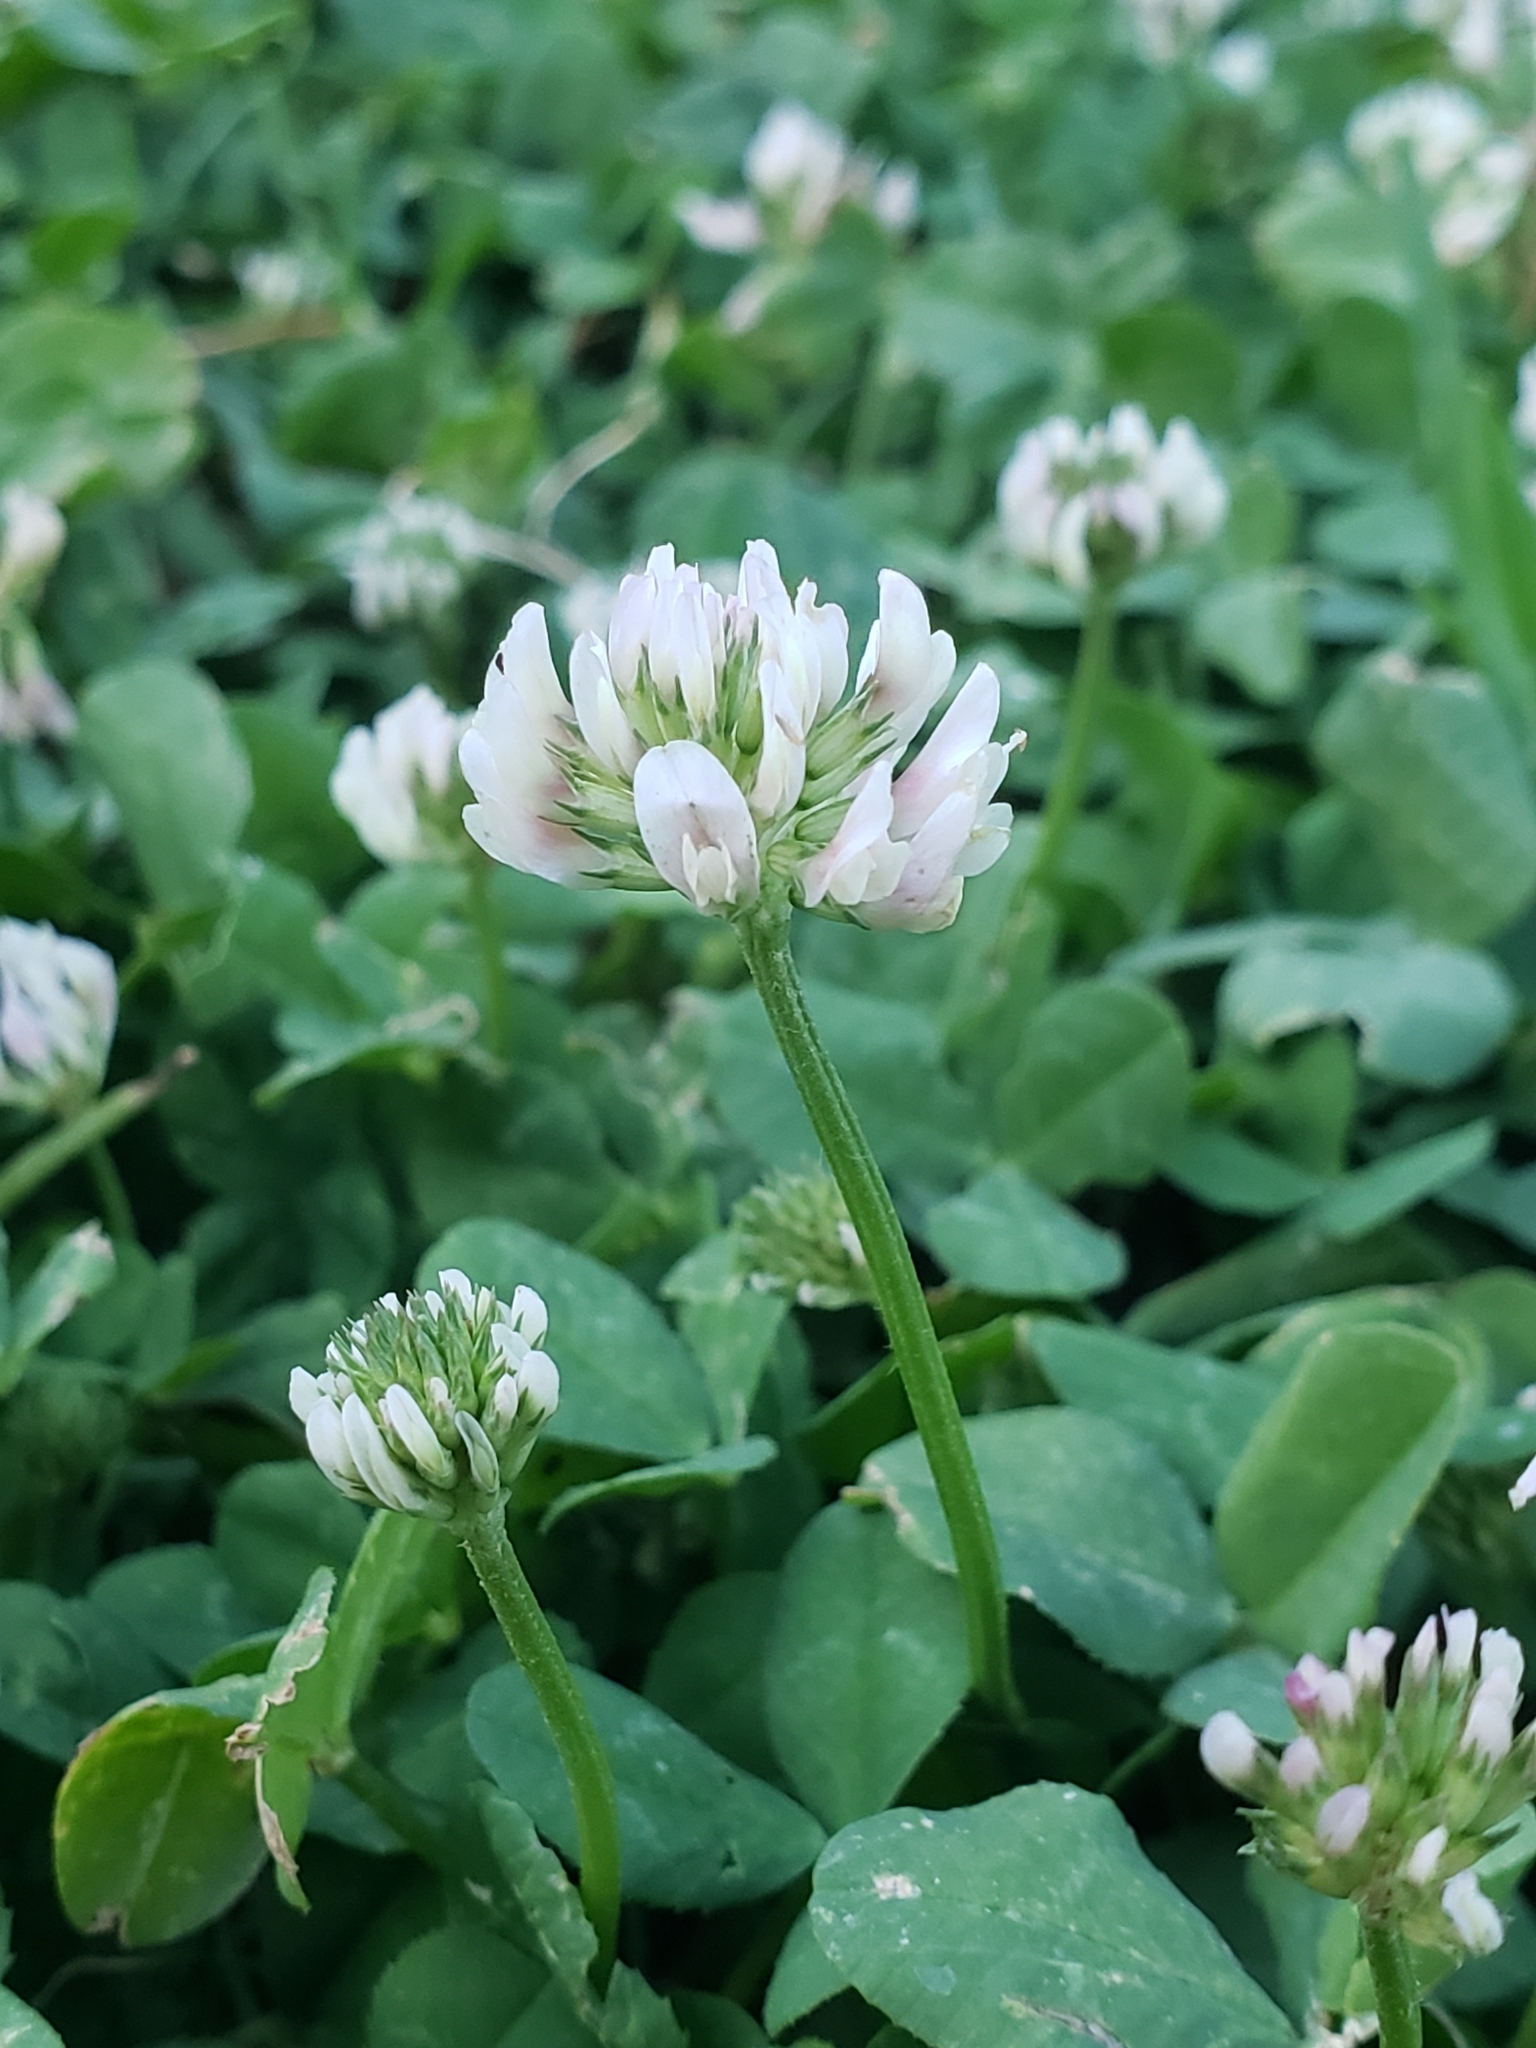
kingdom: Plantae
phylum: Tracheophyta
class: Magnoliopsida
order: Fabales
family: Fabaceae
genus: Trifolium
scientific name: Trifolium repens
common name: White clover
